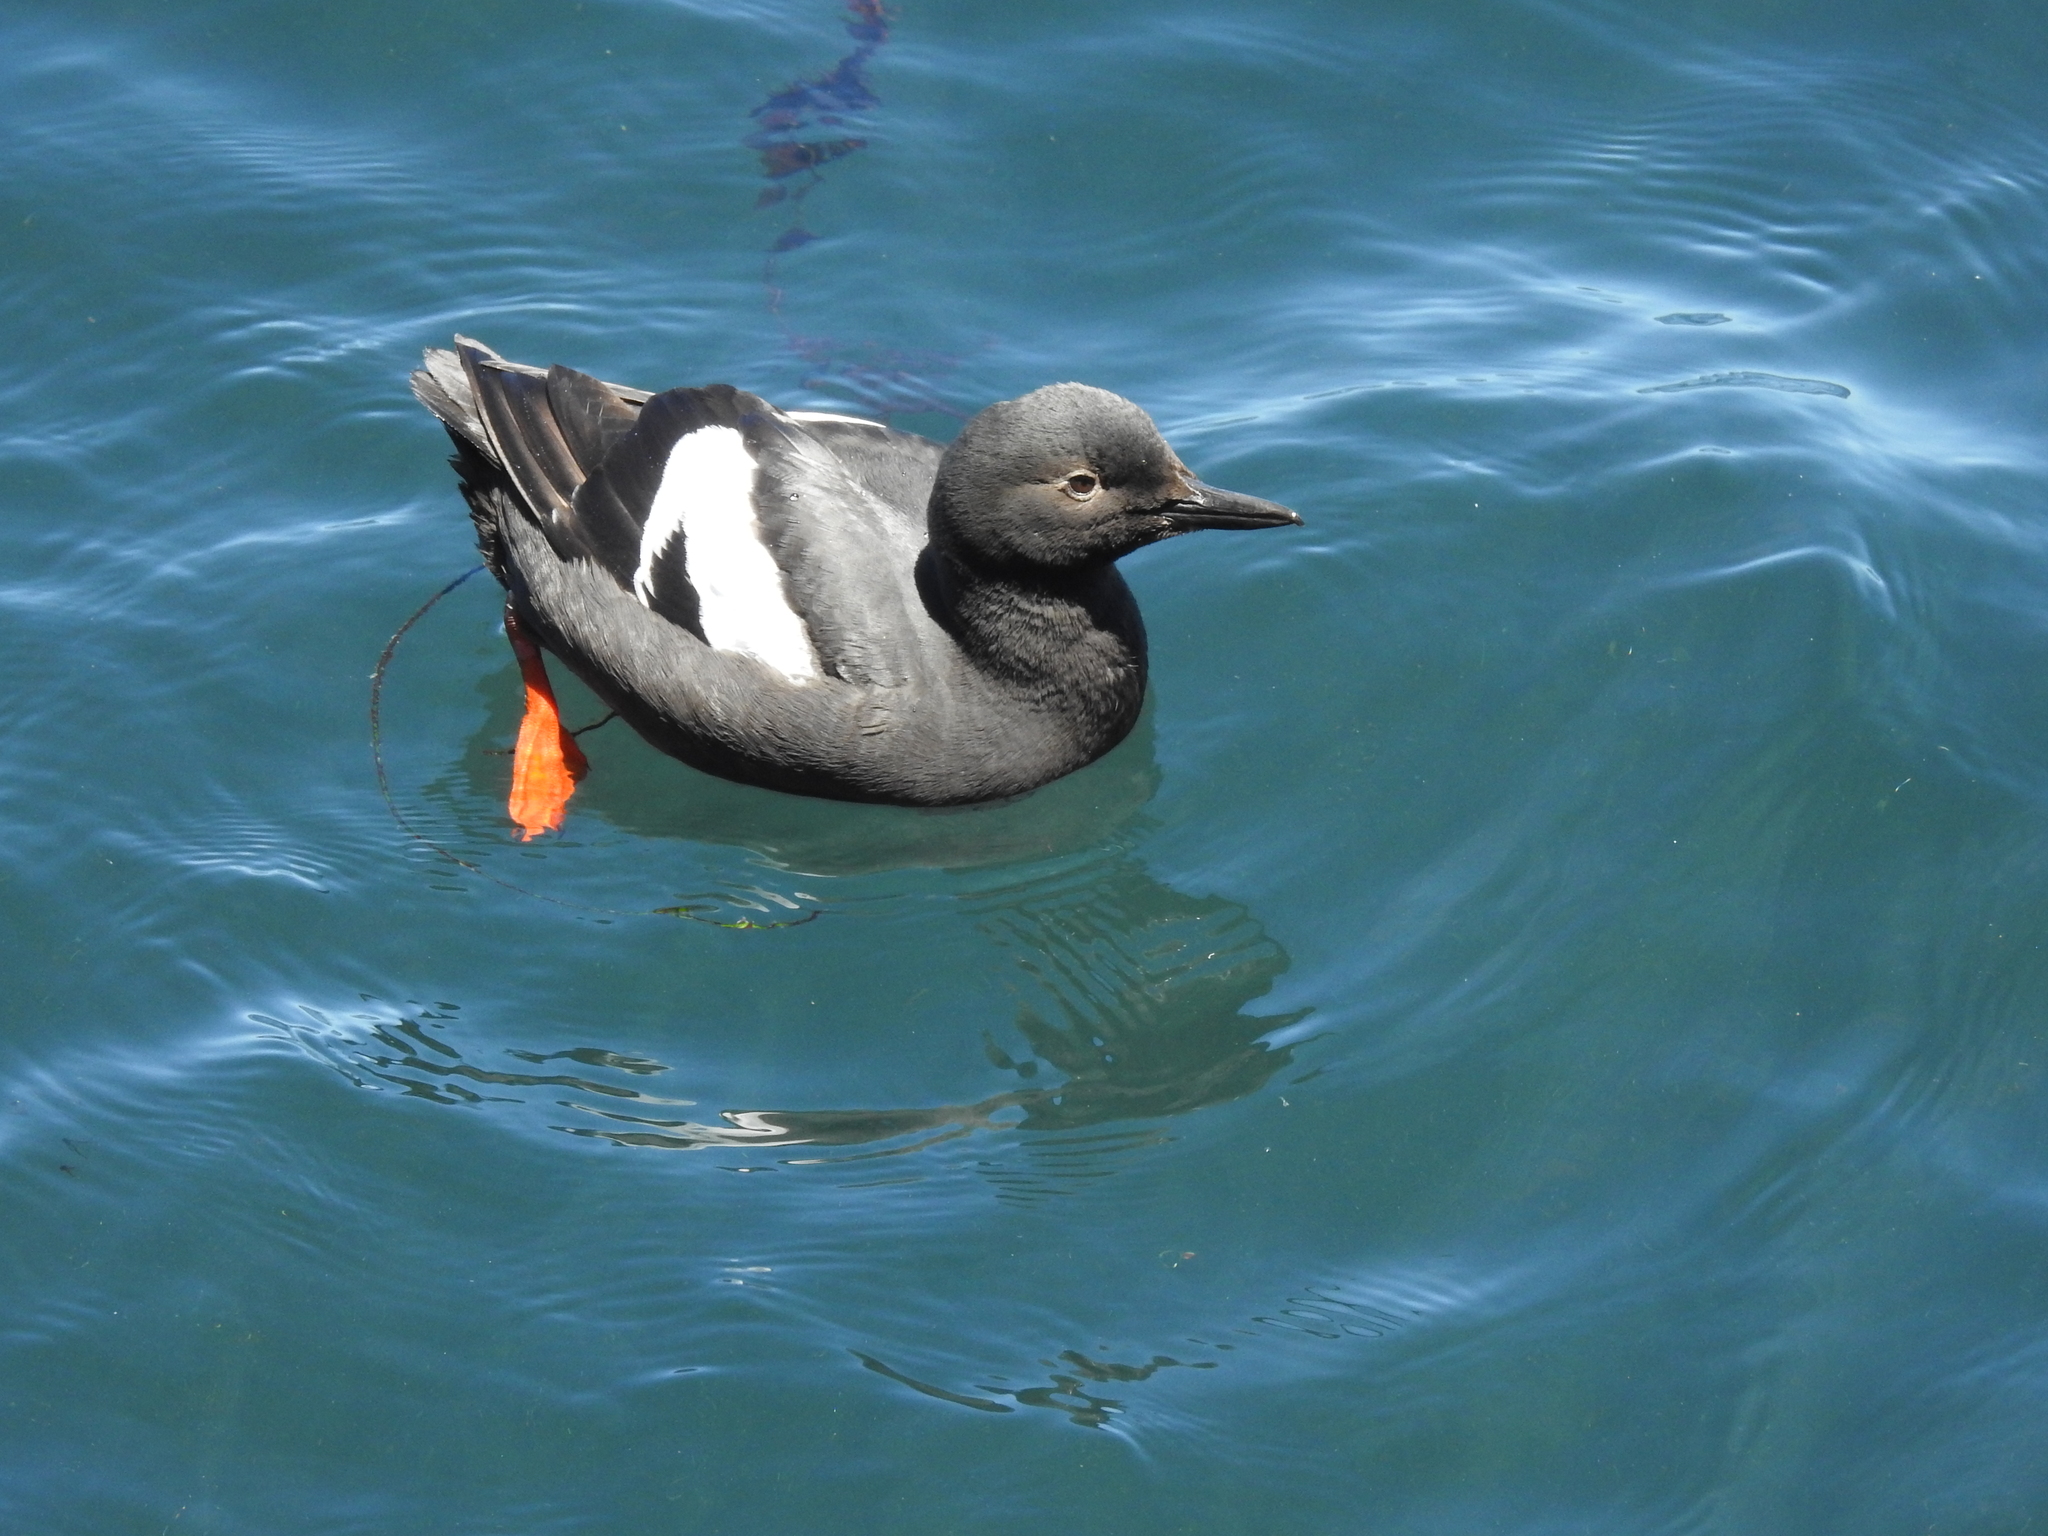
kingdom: Animalia
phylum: Chordata
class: Aves
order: Charadriiformes
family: Alcidae
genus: Cepphus
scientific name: Cepphus columba
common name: Pigeon guillemot
